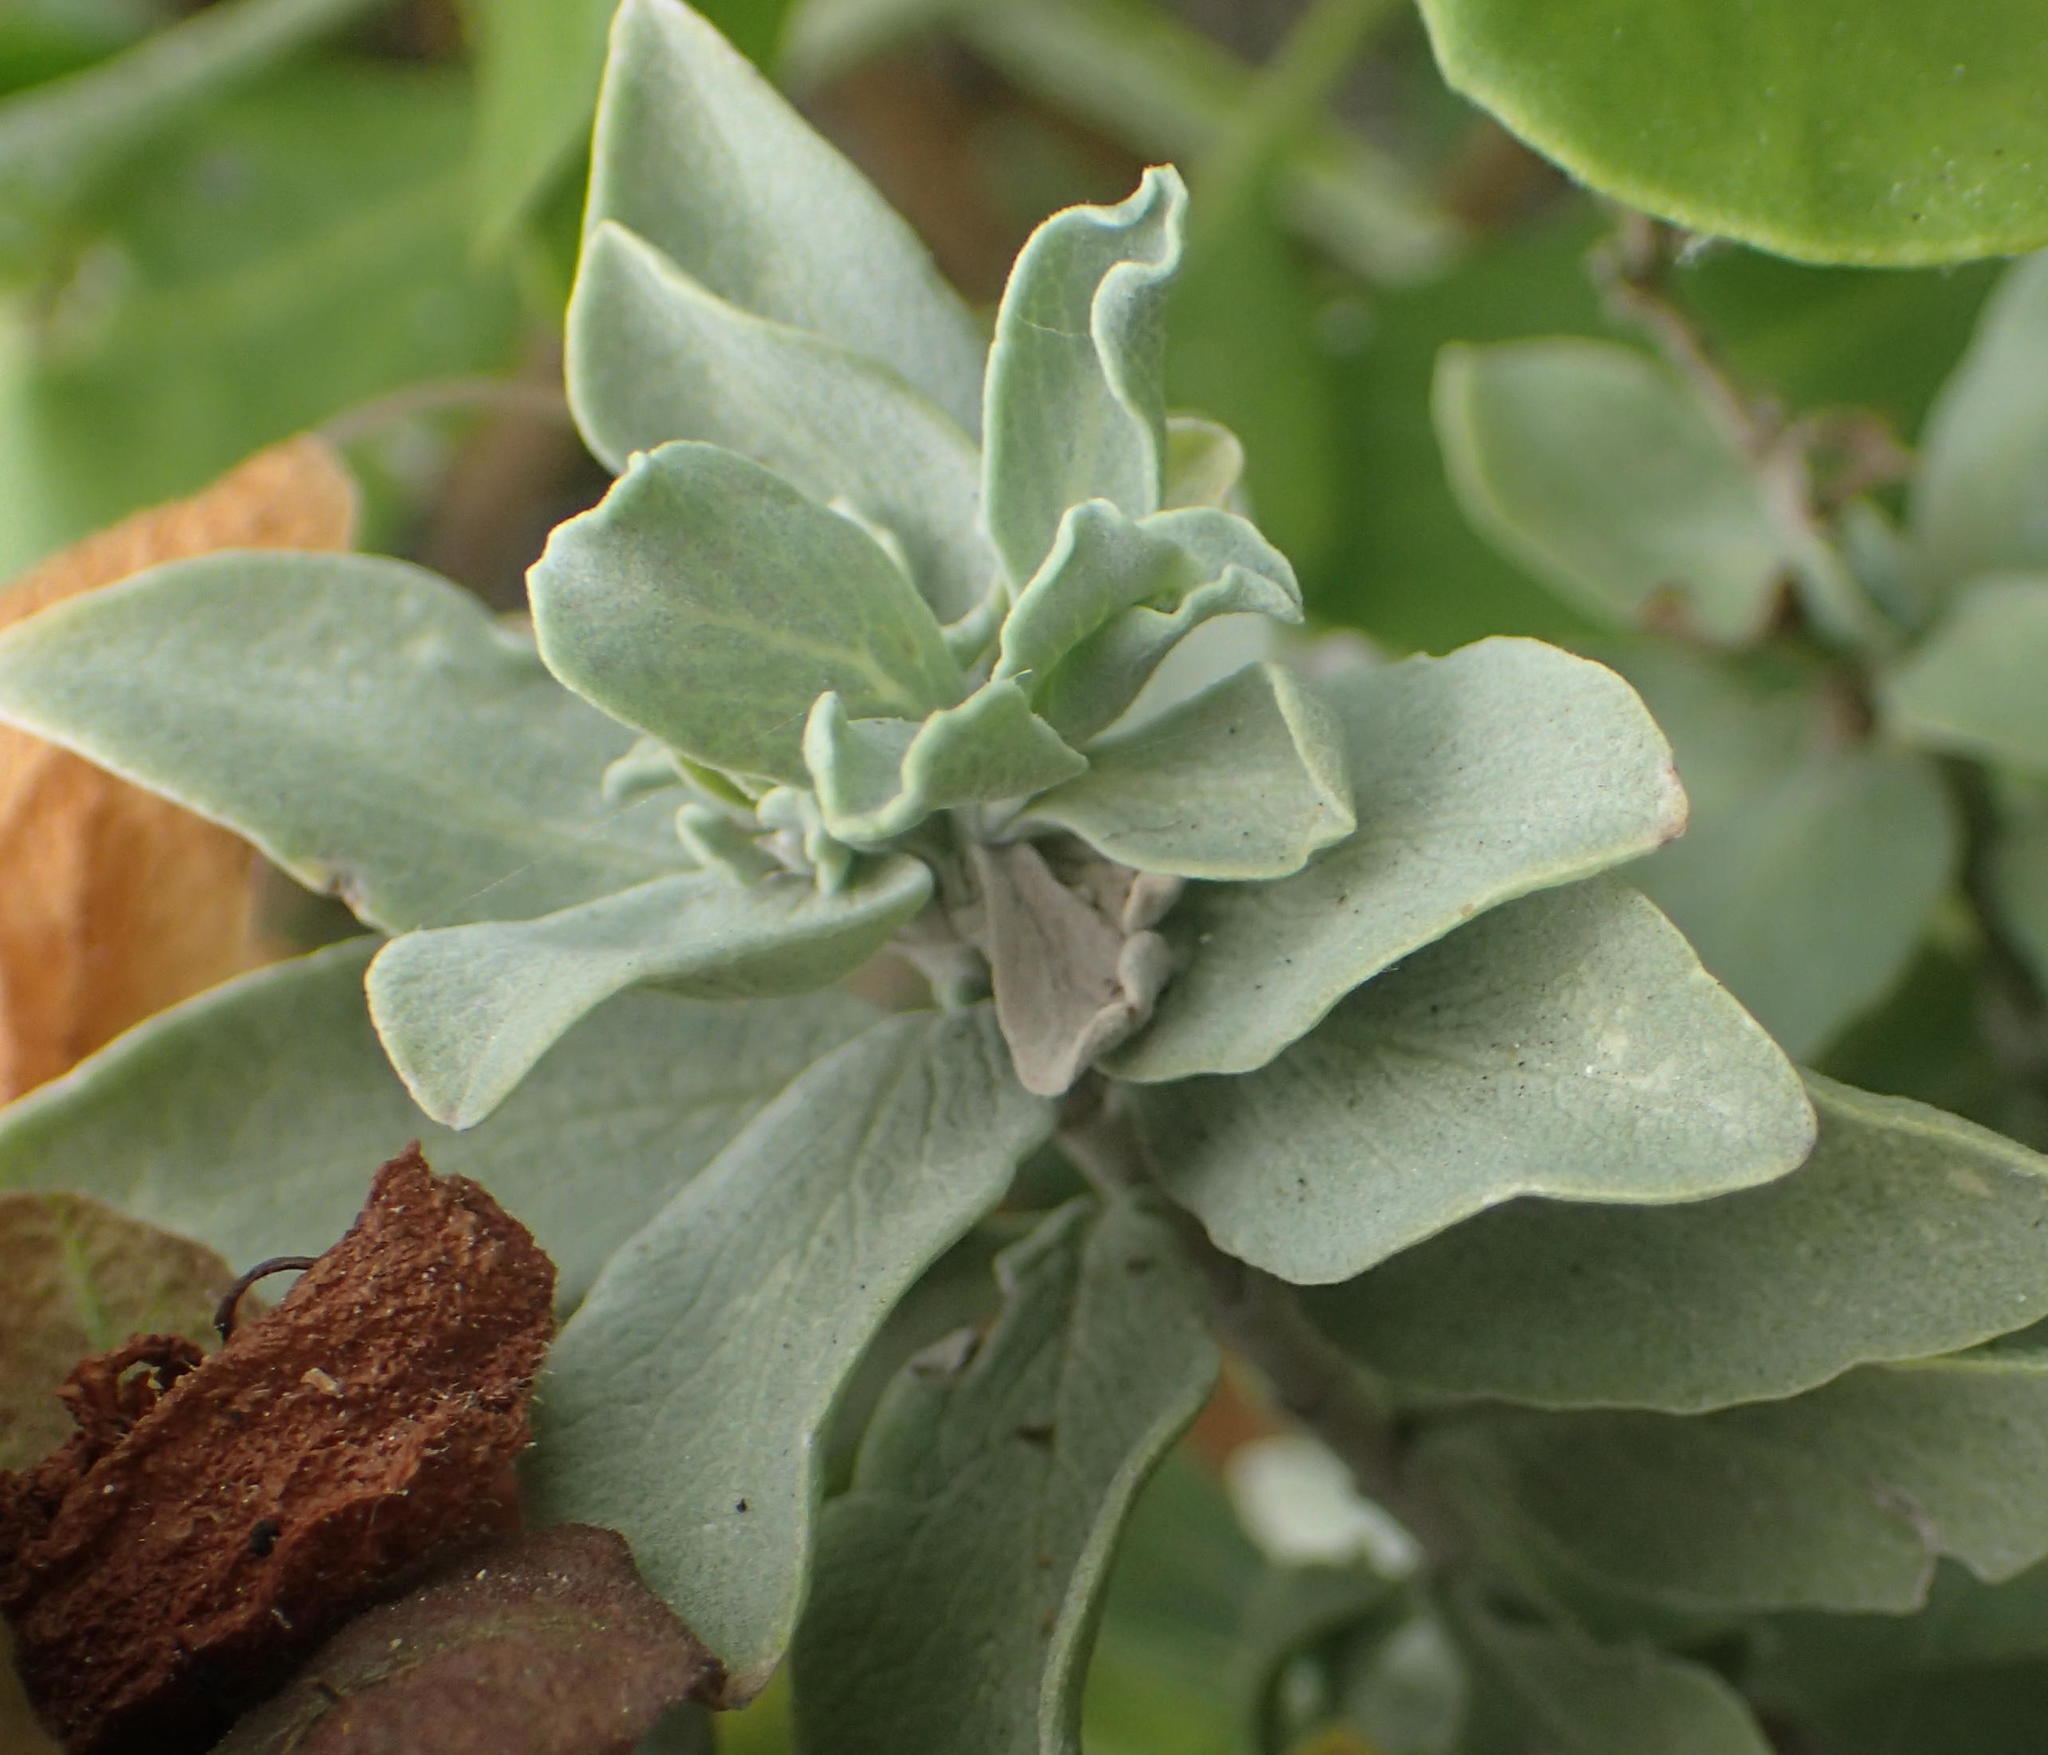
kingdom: Plantae
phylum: Tracheophyta
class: Magnoliopsida
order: Lamiales
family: Lamiaceae
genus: Salvia
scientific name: Salvia aurea
